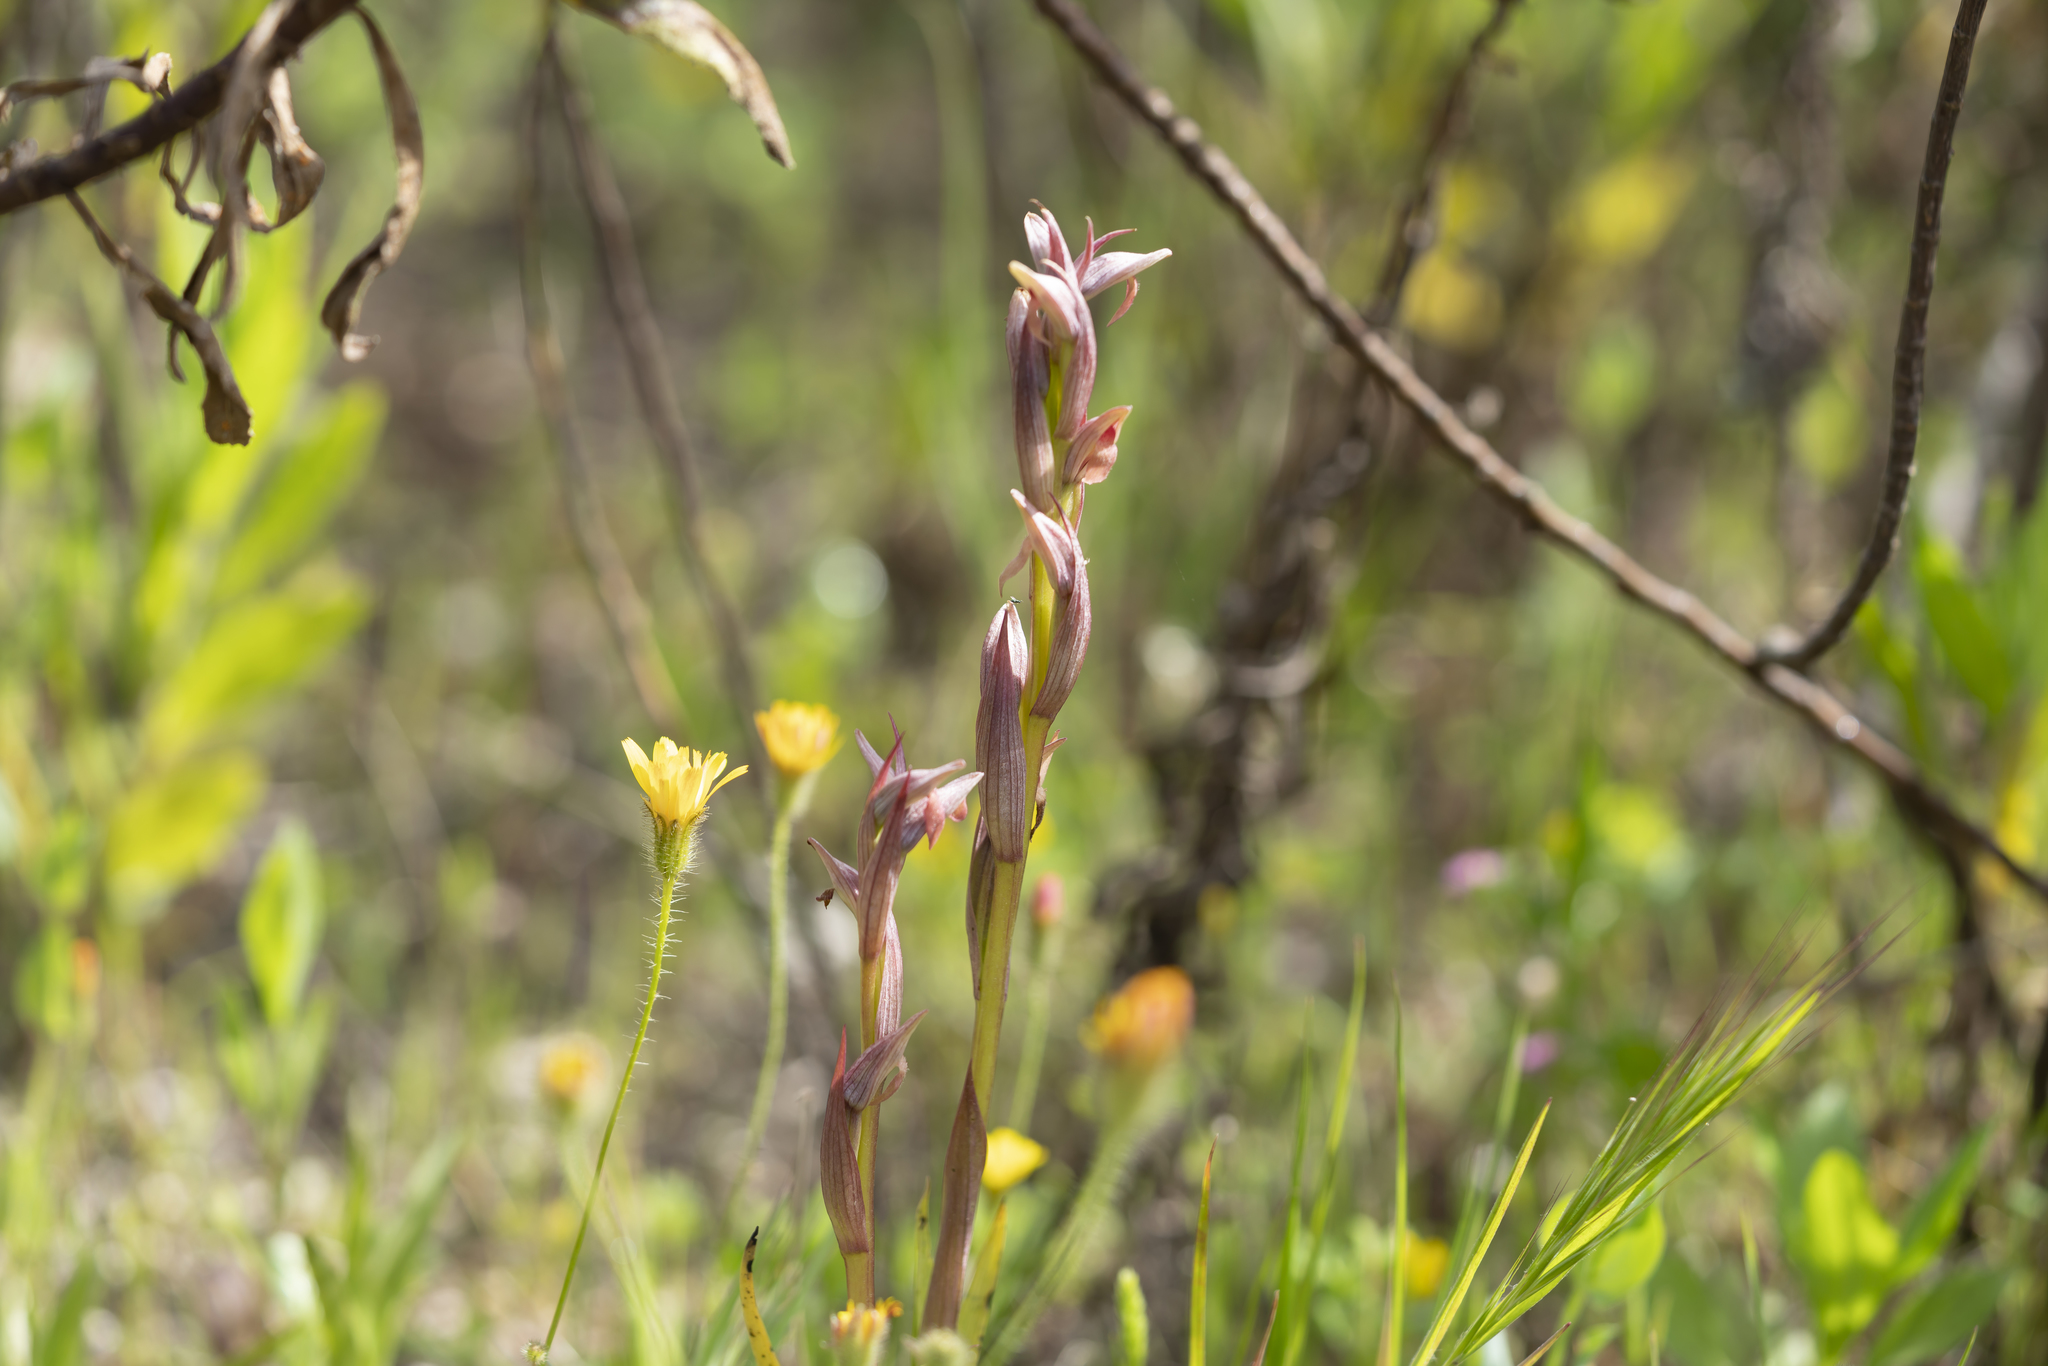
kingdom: Plantae
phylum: Tracheophyta
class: Liliopsida
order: Asparagales
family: Orchidaceae
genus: Serapias
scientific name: Serapias parviflora
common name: Small-flowered tongue-orchid
